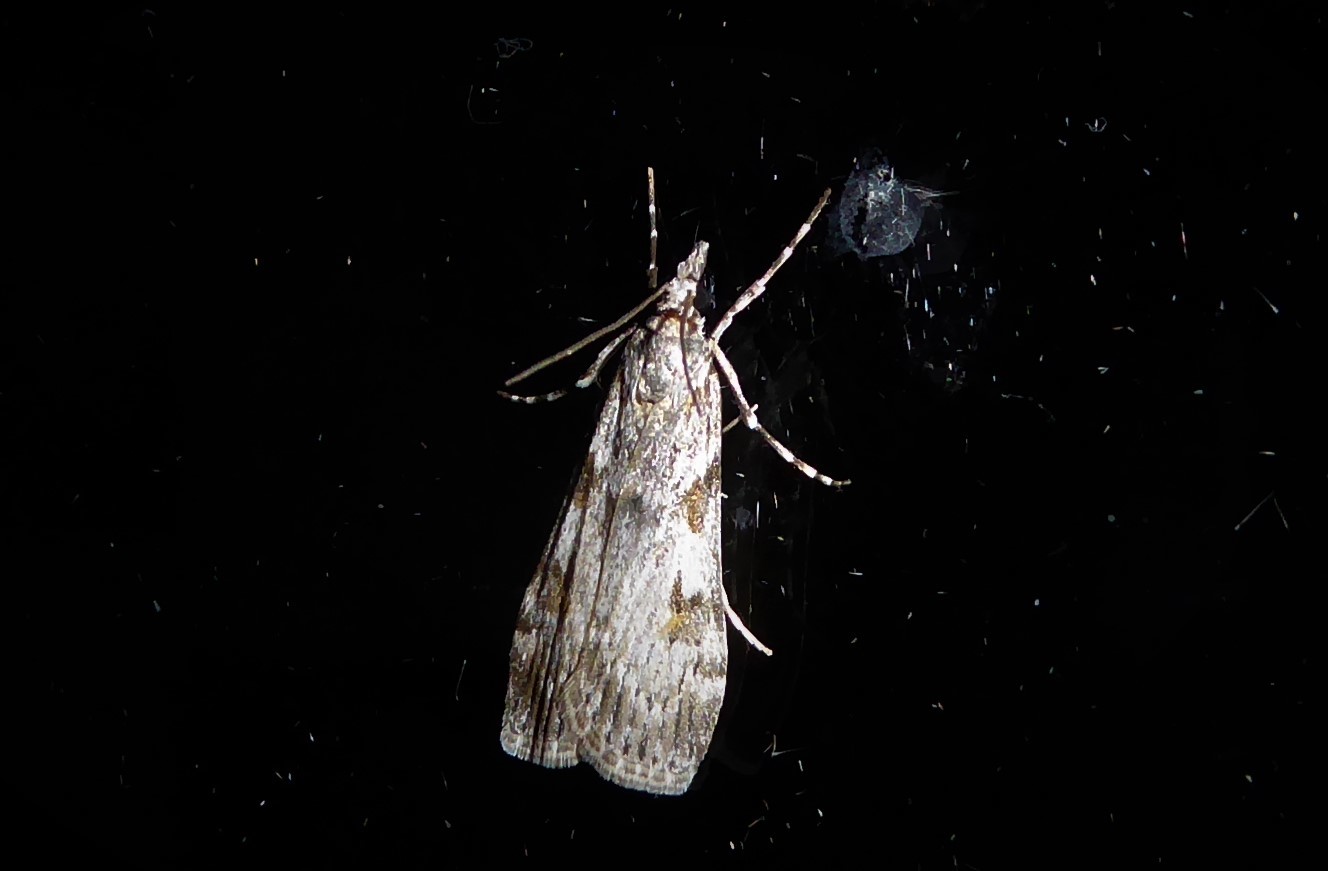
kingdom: Animalia
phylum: Arthropoda
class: Insecta
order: Lepidoptera
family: Crambidae
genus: Scoparia
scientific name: Scoparia halopis
